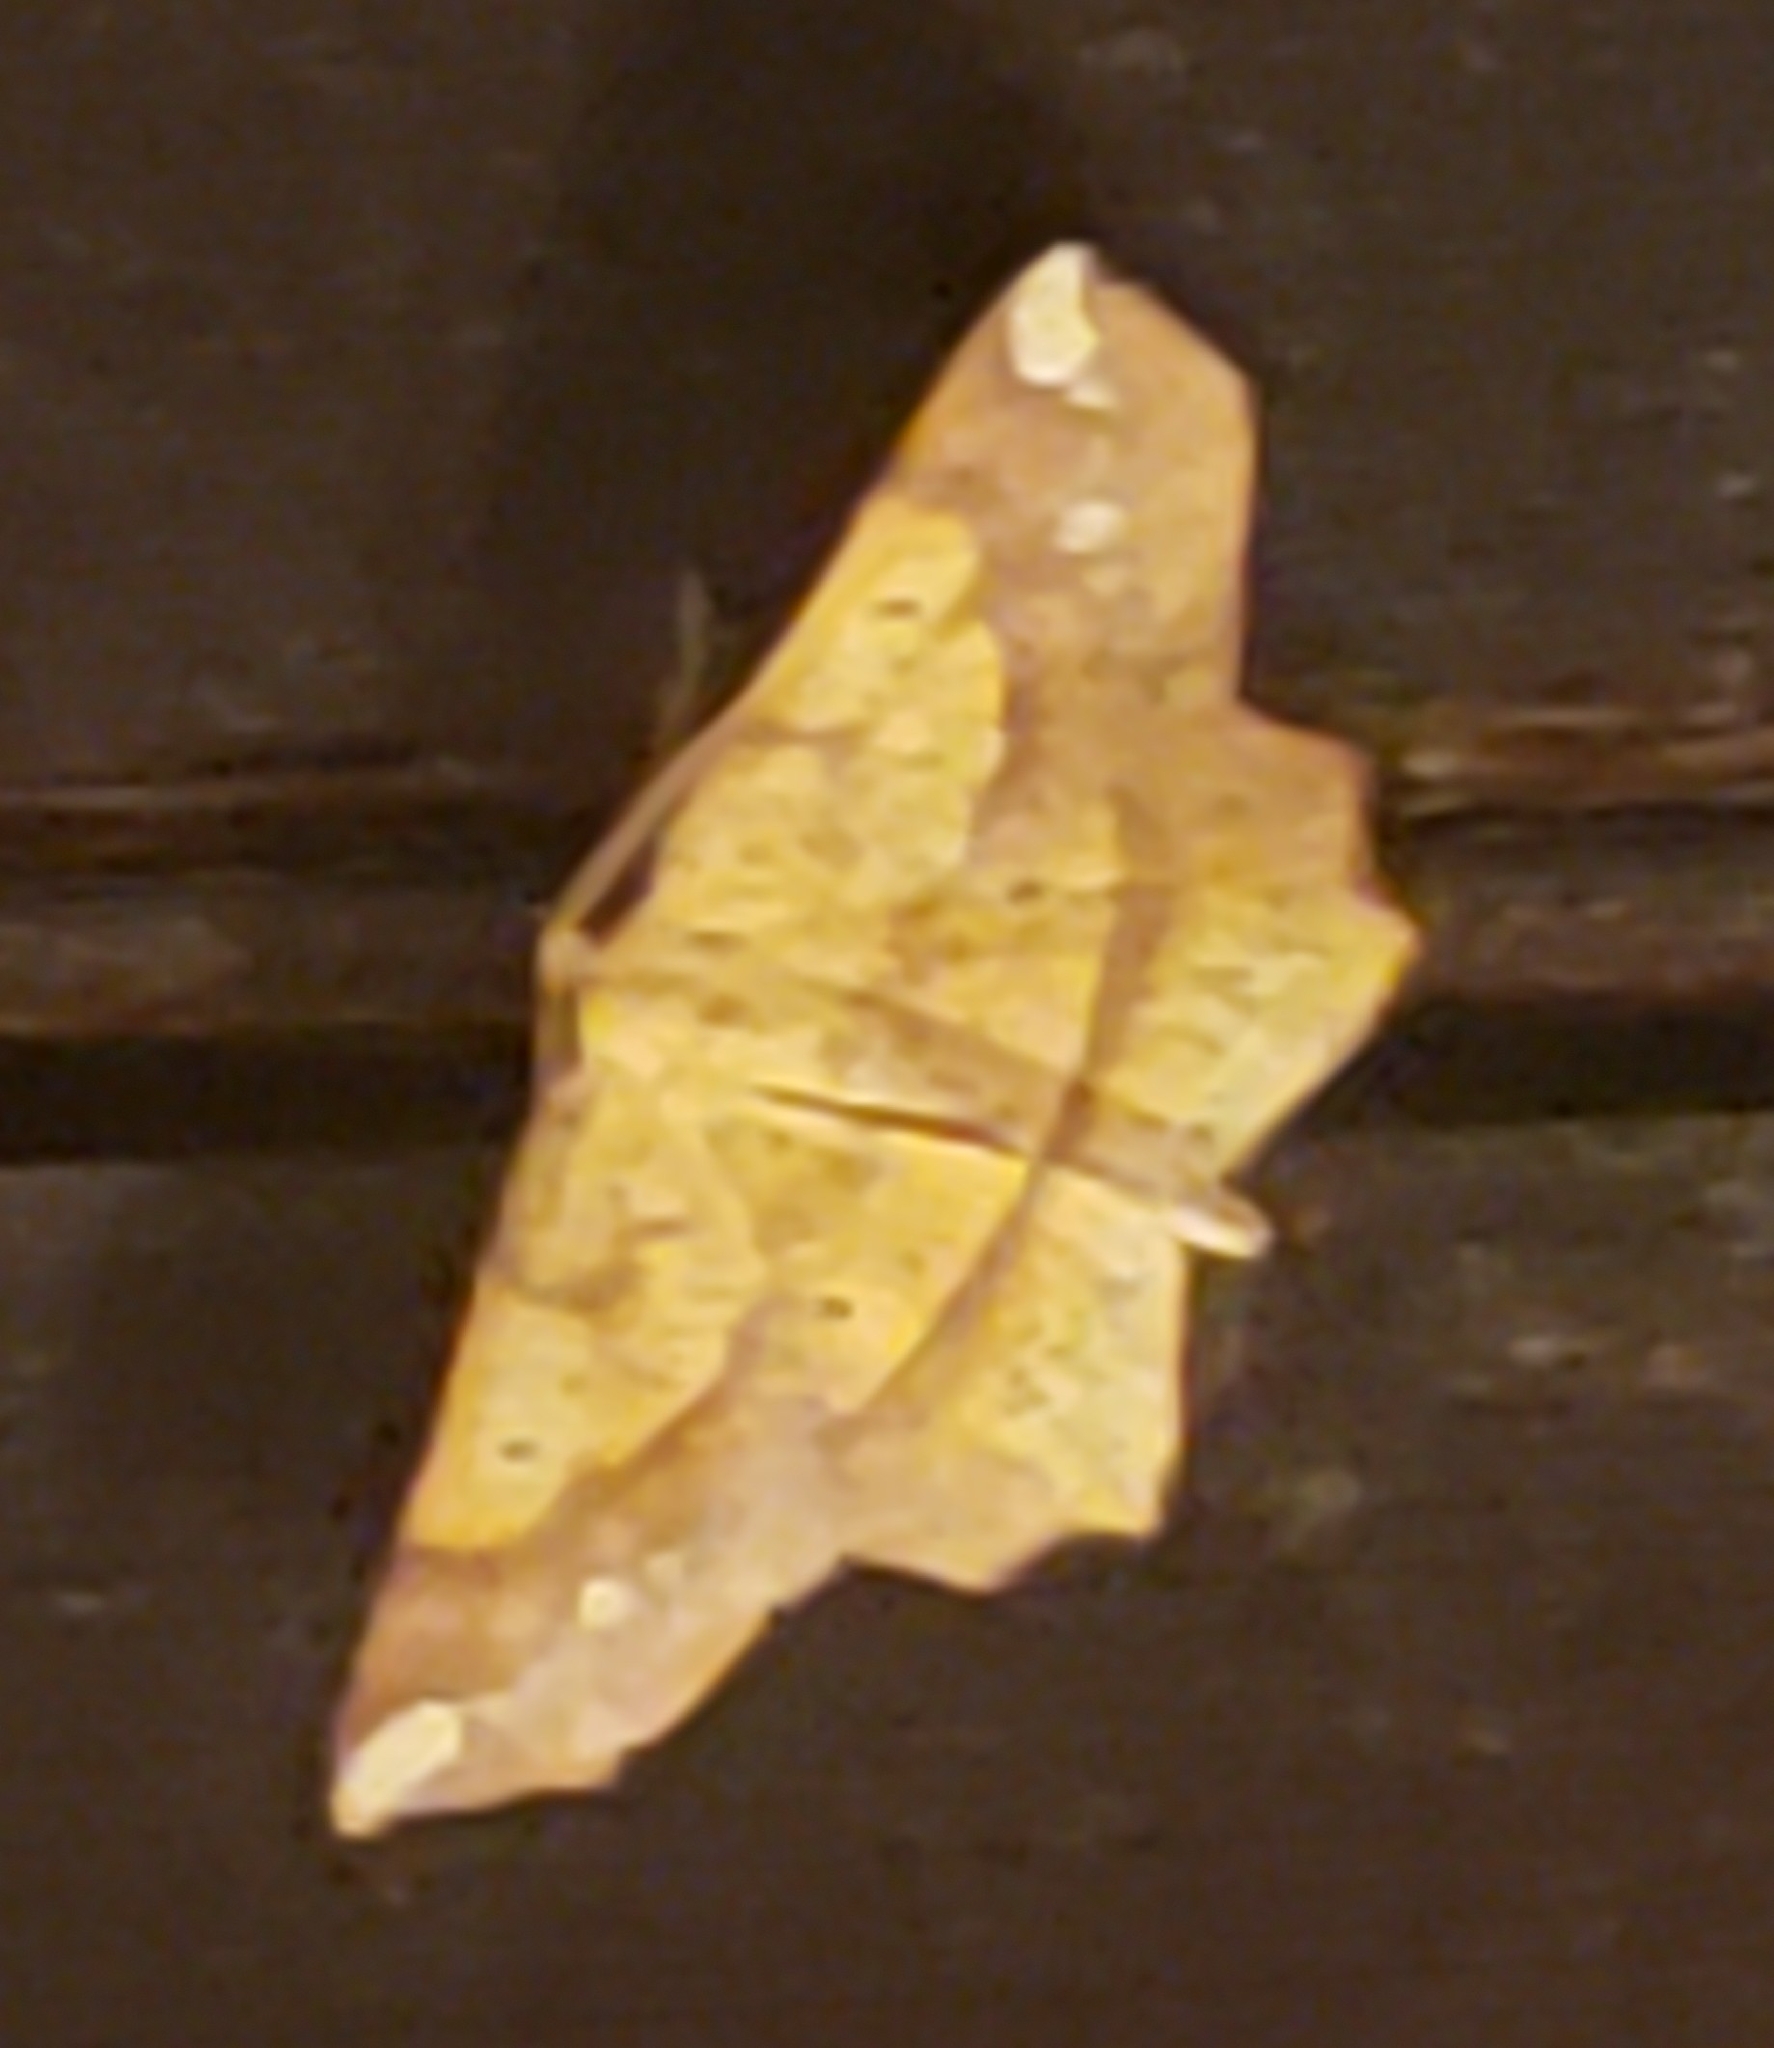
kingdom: Animalia
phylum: Arthropoda
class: Insecta
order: Lepidoptera
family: Geometridae
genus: Euchlaena
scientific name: Euchlaena amoenaria
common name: Deep yellow euchlaena
